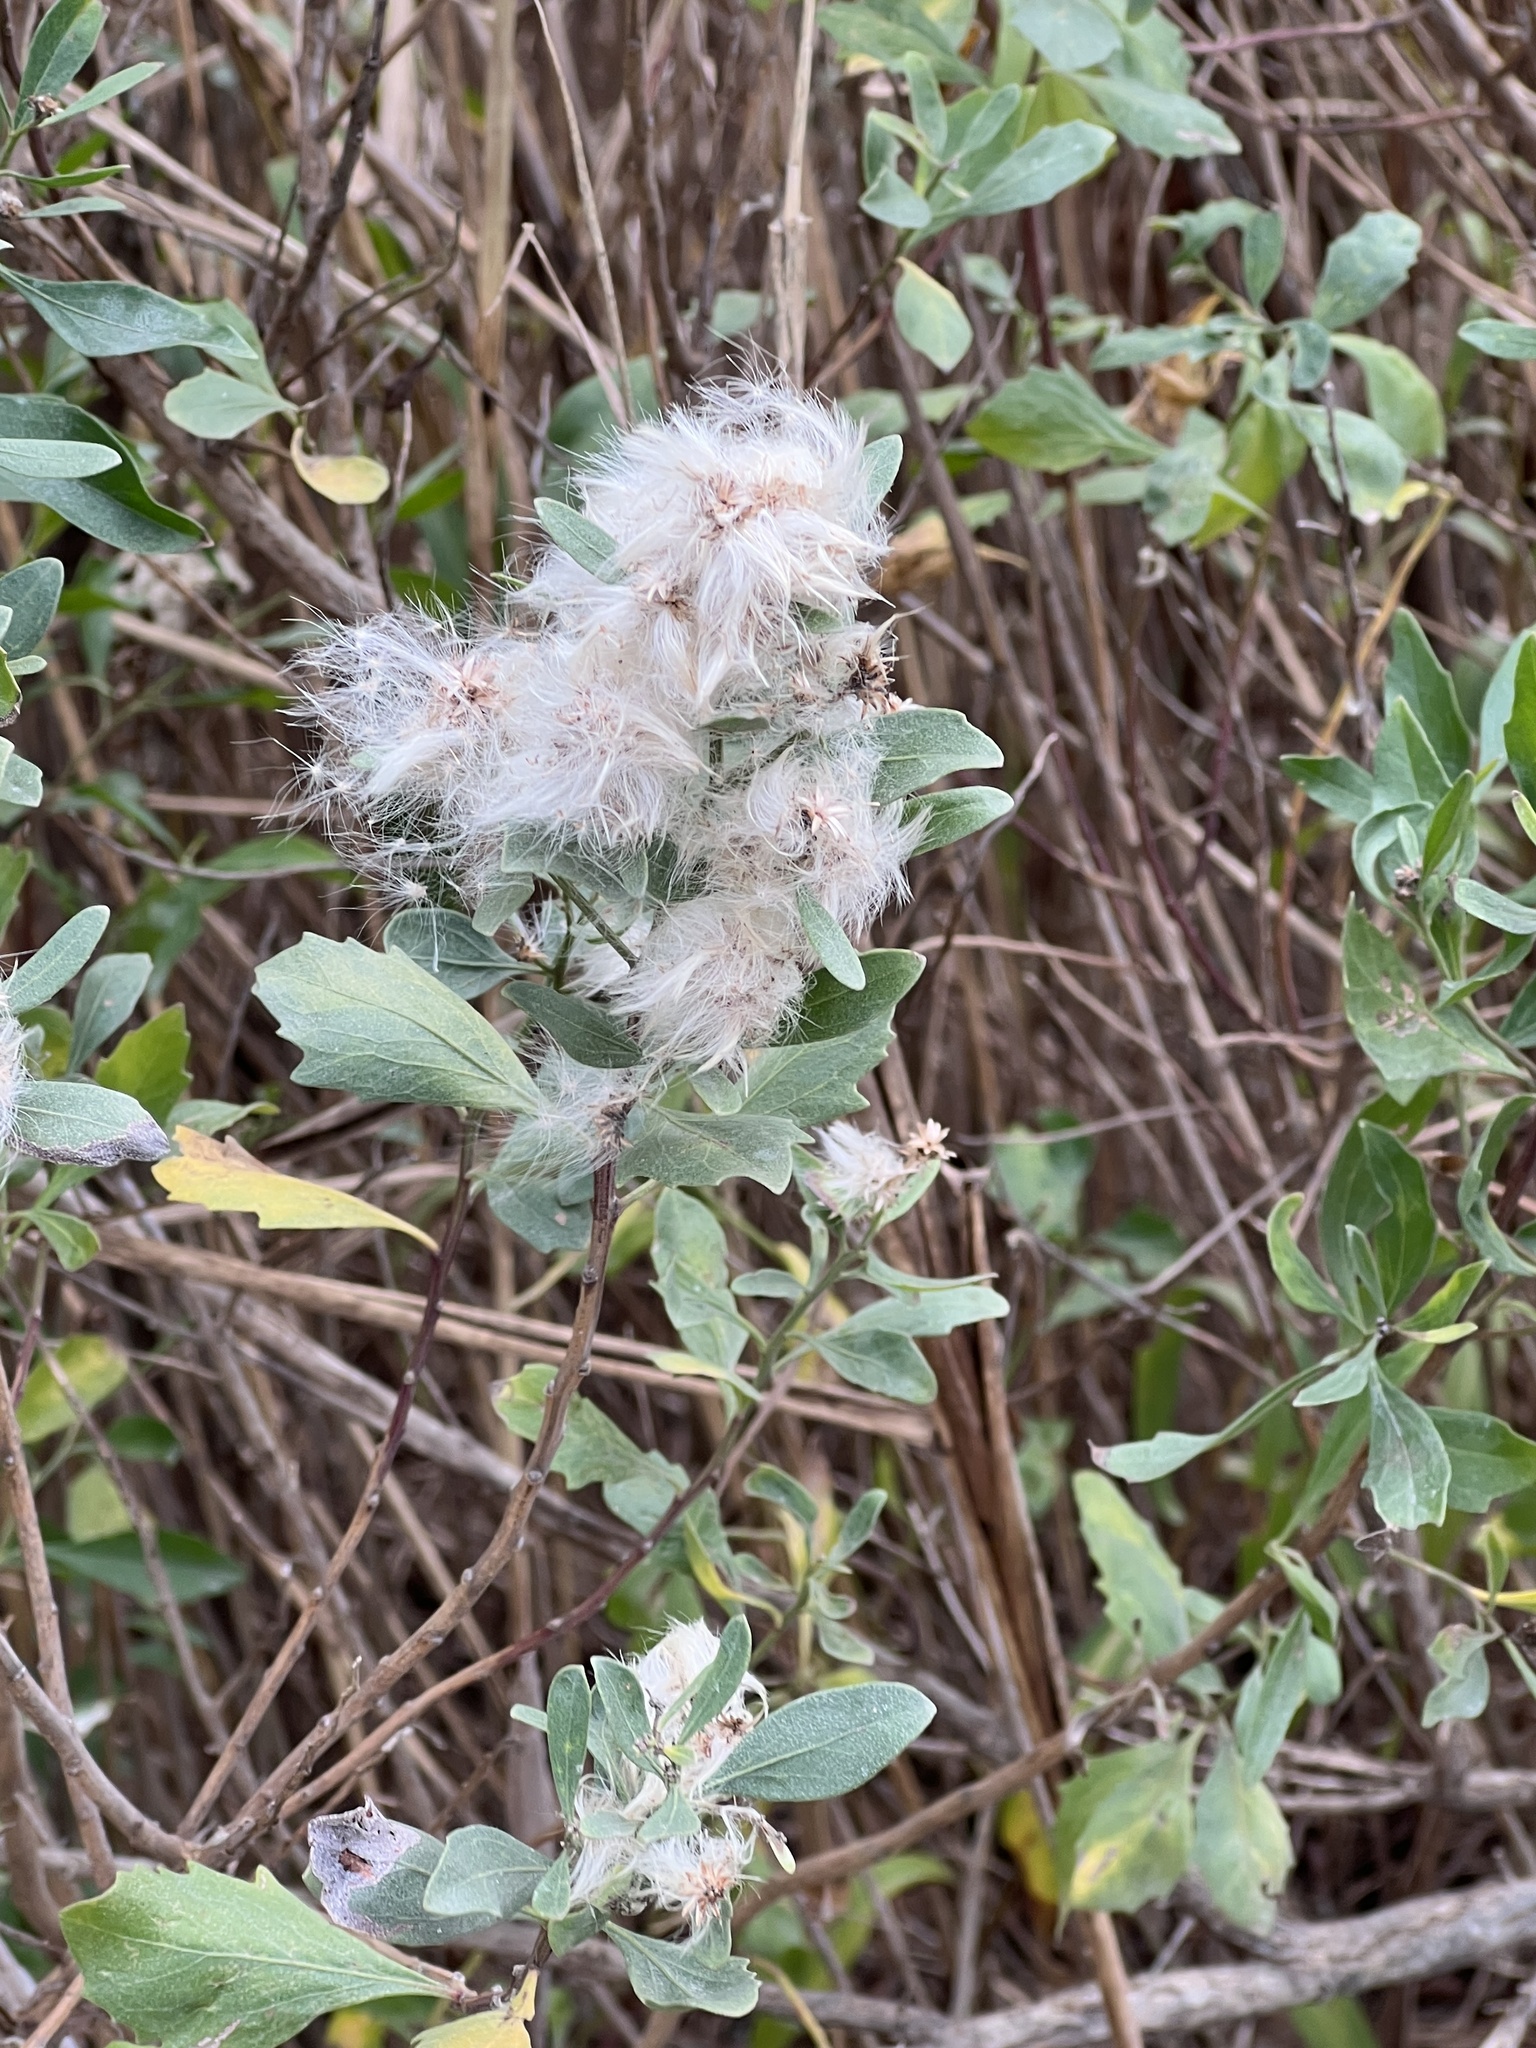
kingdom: Plantae
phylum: Tracheophyta
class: Magnoliopsida
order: Asterales
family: Asteraceae
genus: Baccharis
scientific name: Baccharis halimifolia
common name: Eastern baccharis
